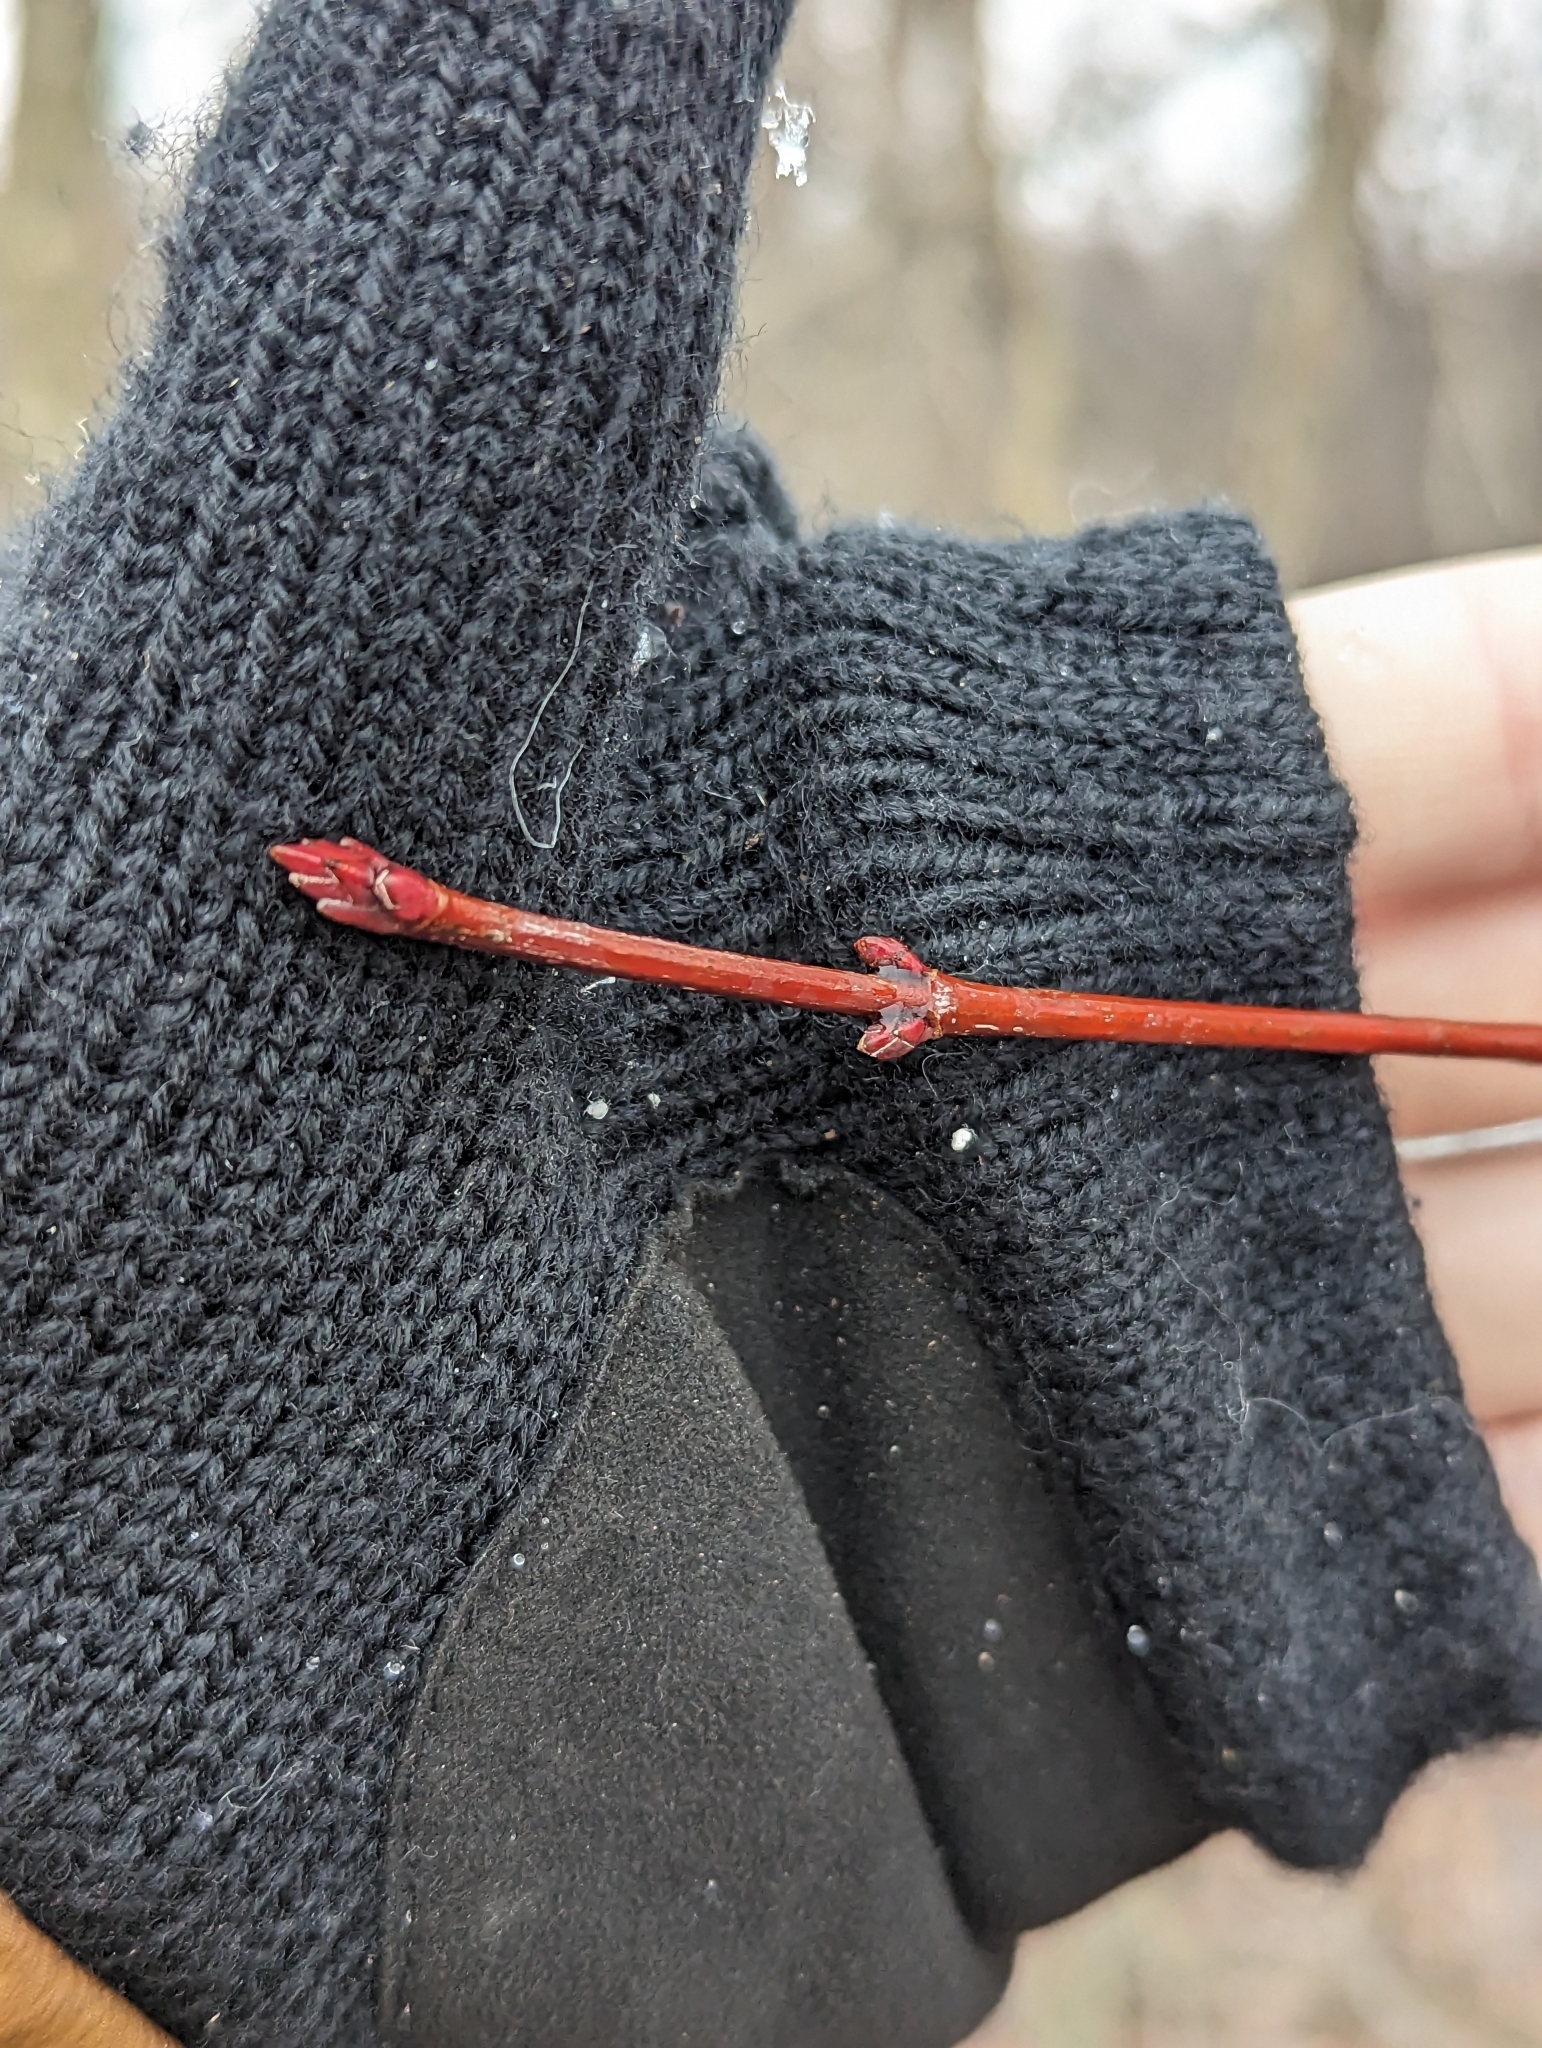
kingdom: Plantae
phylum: Tracheophyta
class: Magnoliopsida
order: Sapindales
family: Sapindaceae
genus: Acer
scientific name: Acer rubrum
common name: Red maple
